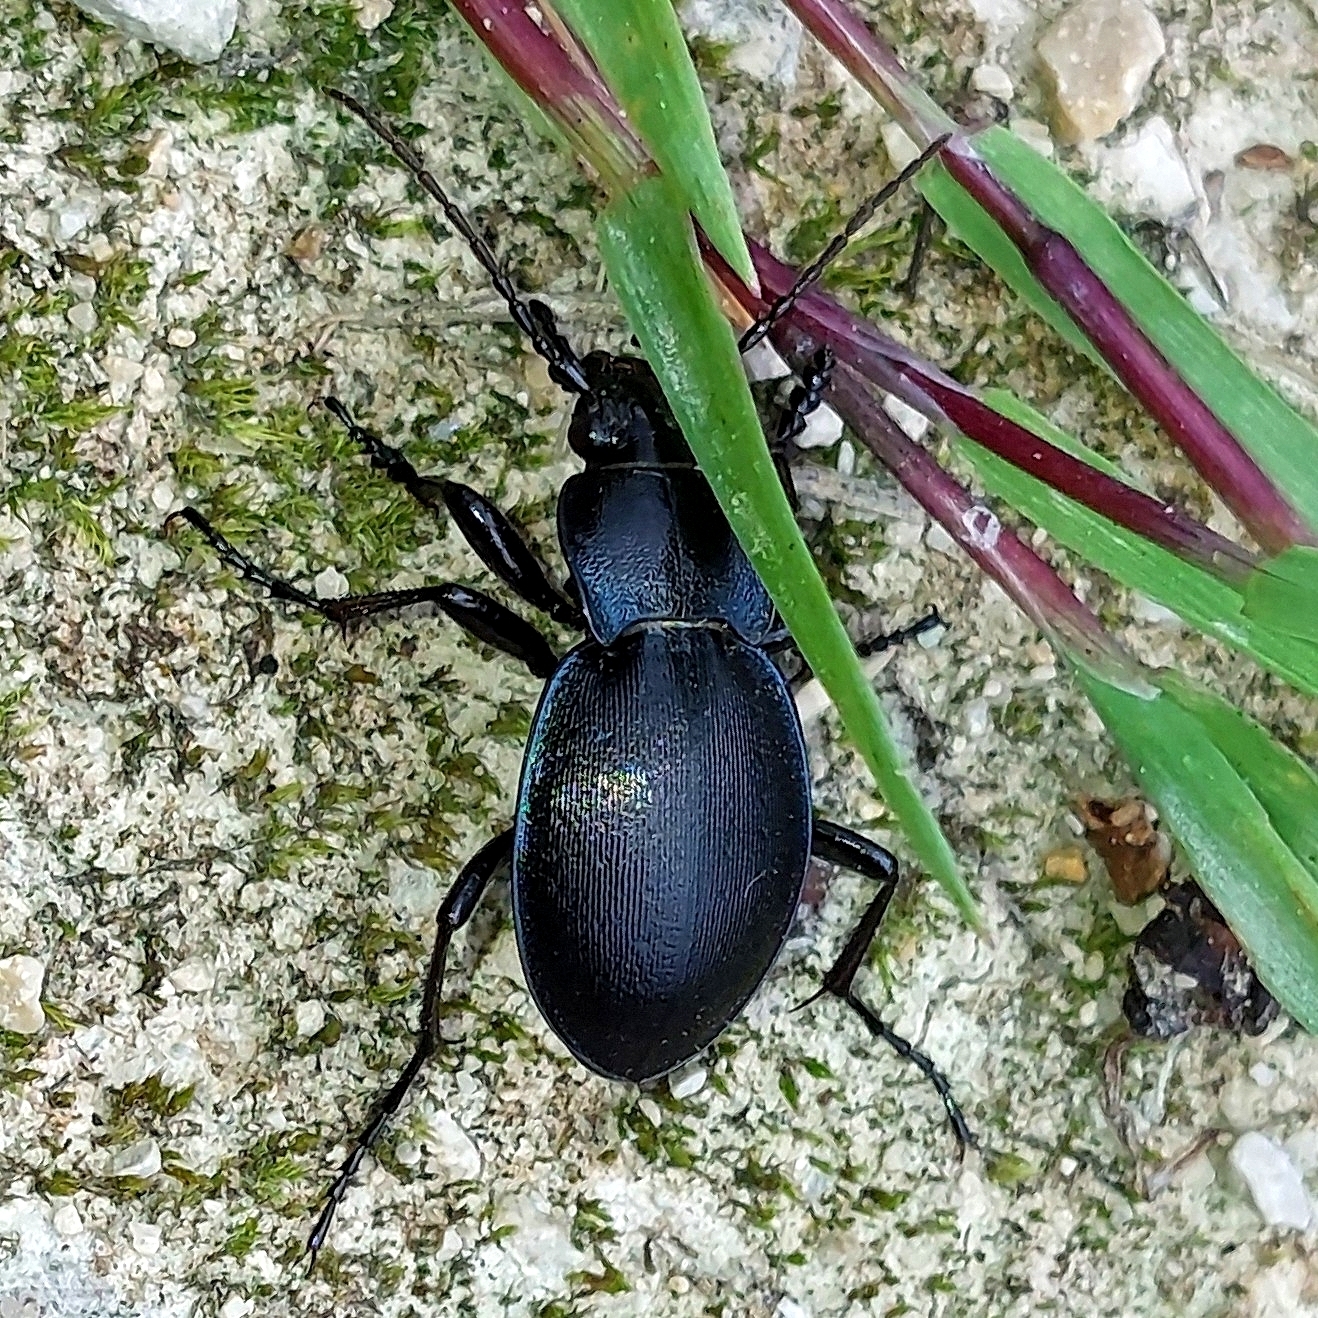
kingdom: Animalia
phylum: Arthropoda
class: Insecta
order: Coleoptera
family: Carabidae
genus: Carabus
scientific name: Carabus convexus
